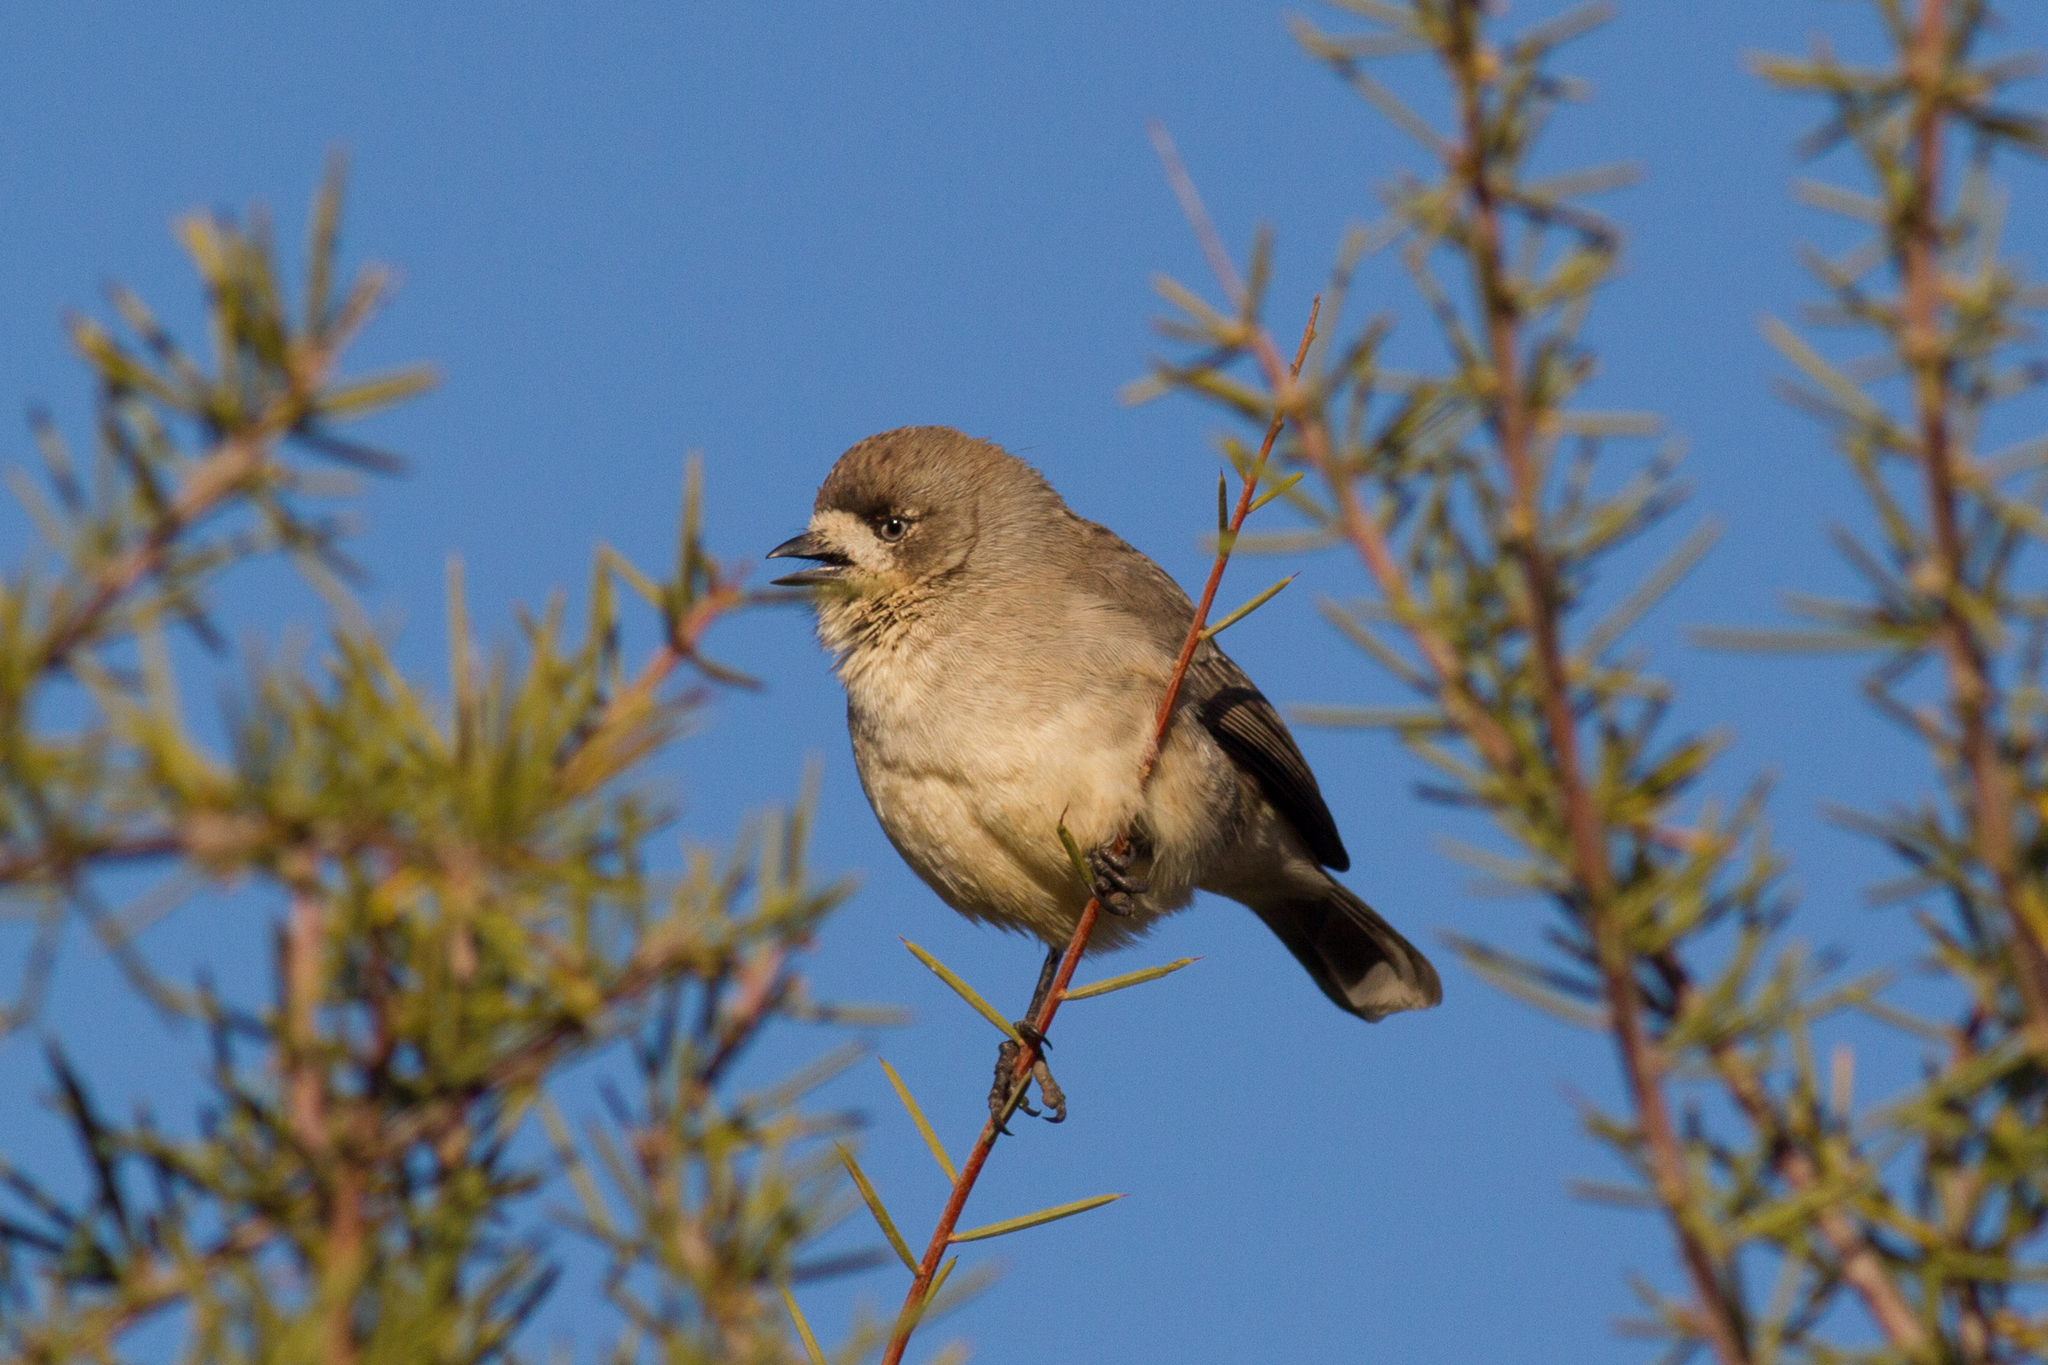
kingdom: Animalia
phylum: Chordata
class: Aves
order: Passeriformes
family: Acanthizidae
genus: Aphelocephala
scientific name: Aphelocephala leucopsis
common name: Southern whiteface
